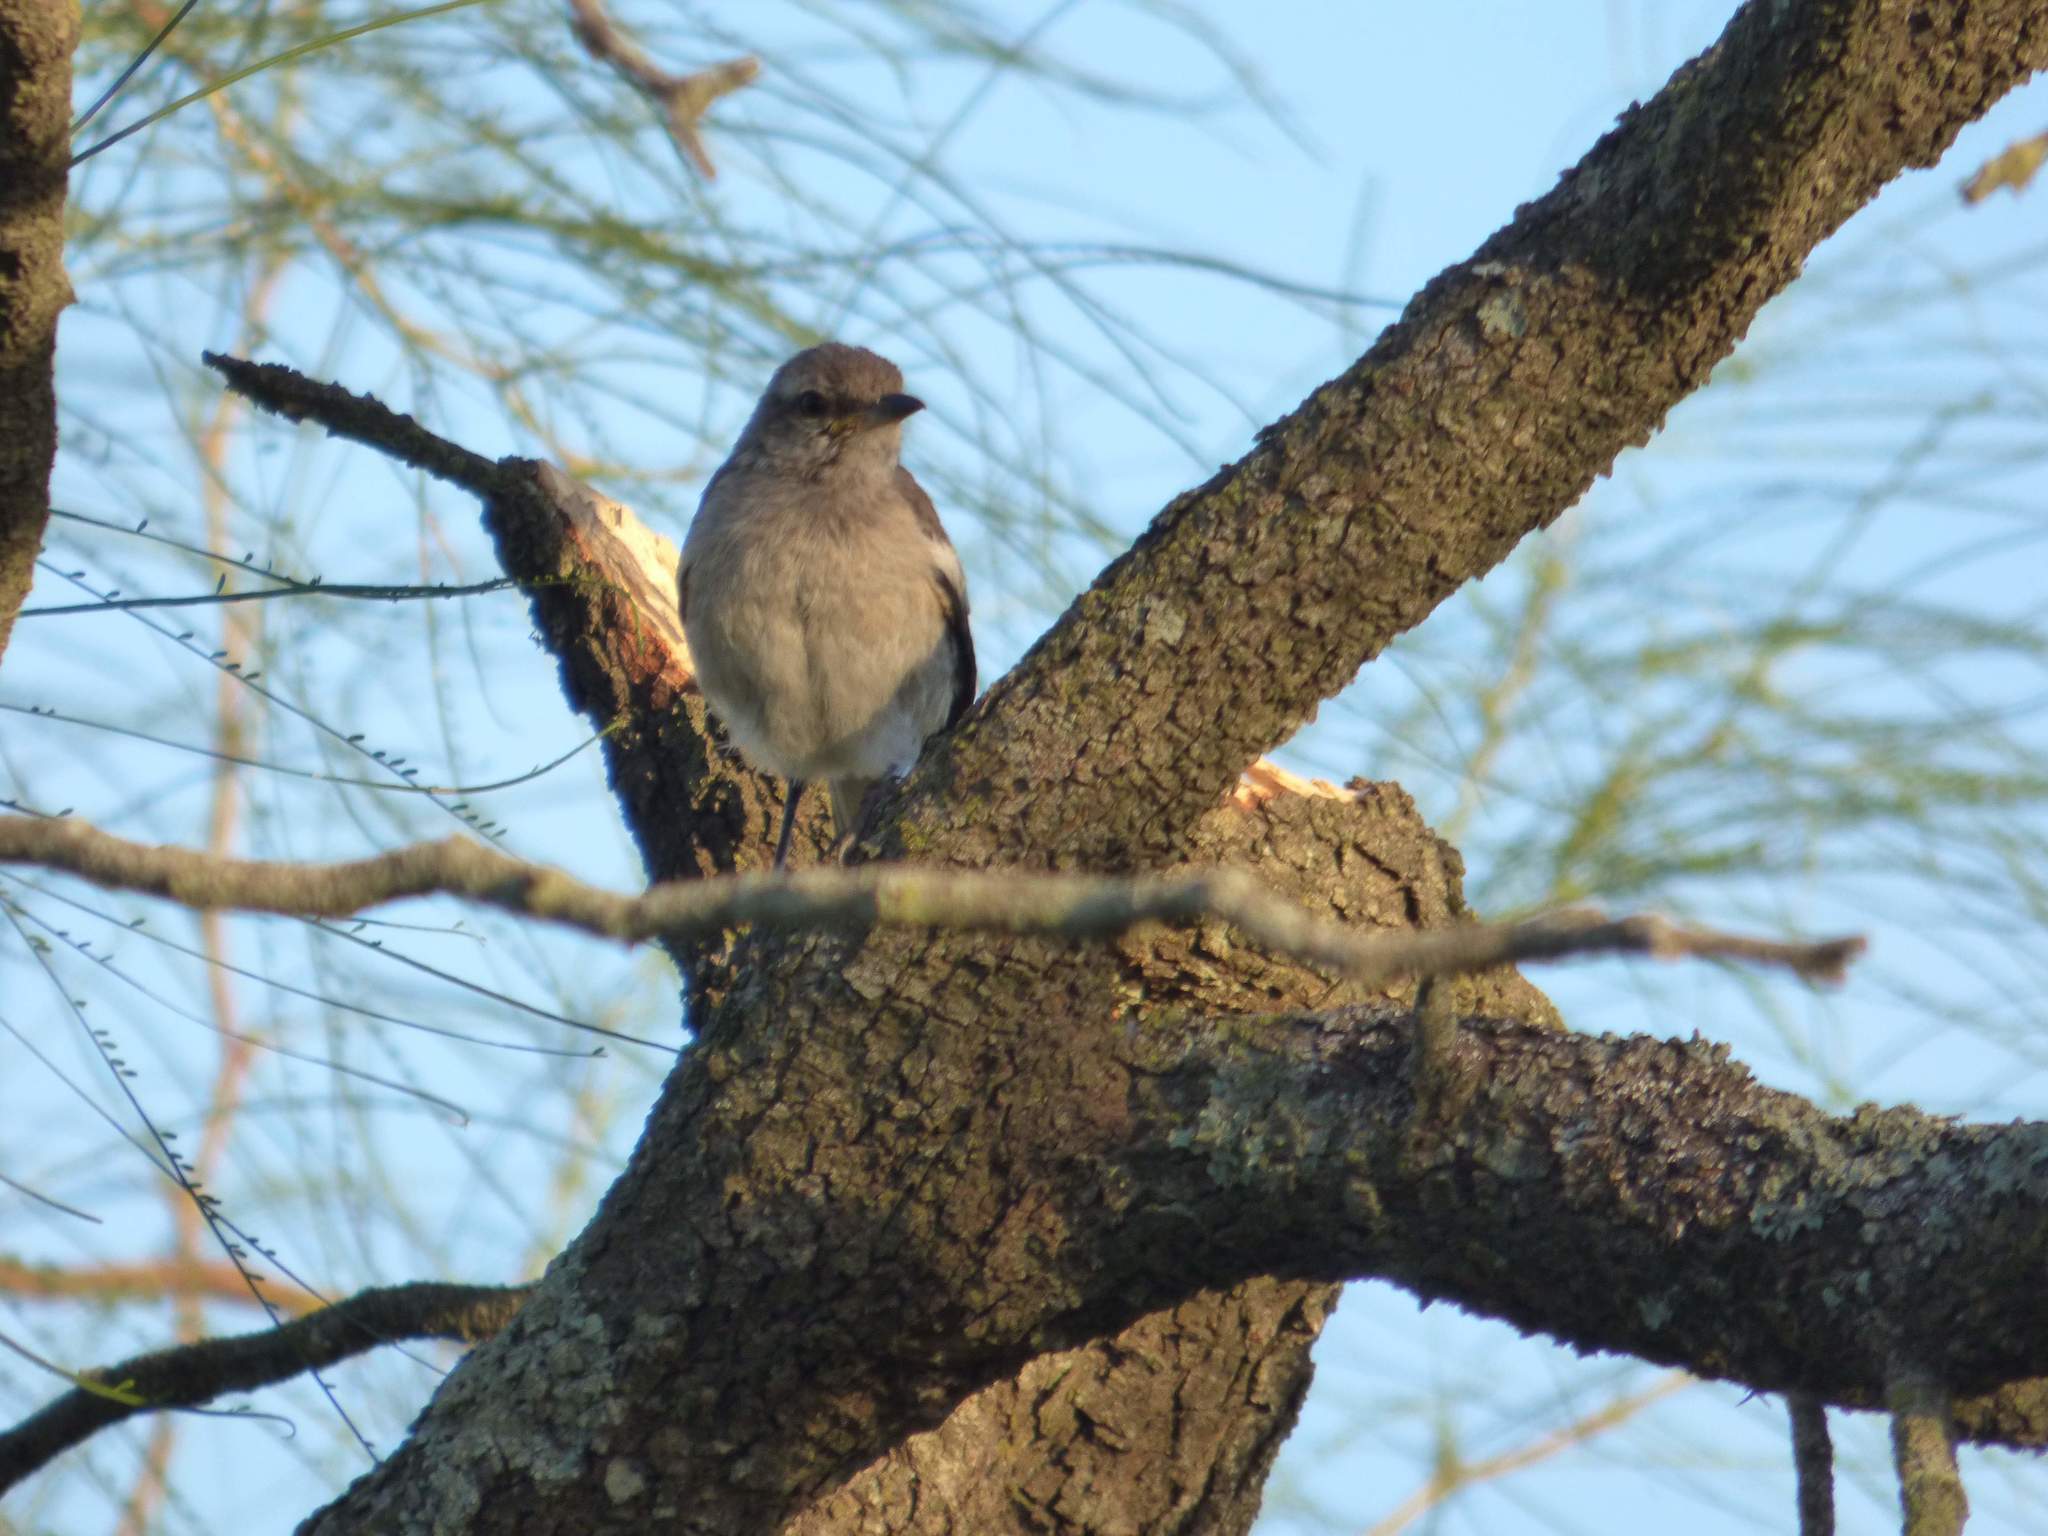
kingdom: Animalia
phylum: Chordata
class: Aves
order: Passeriformes
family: Mimidae
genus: Mimus
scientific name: Mimus triurus
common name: White-banded mockingbird
